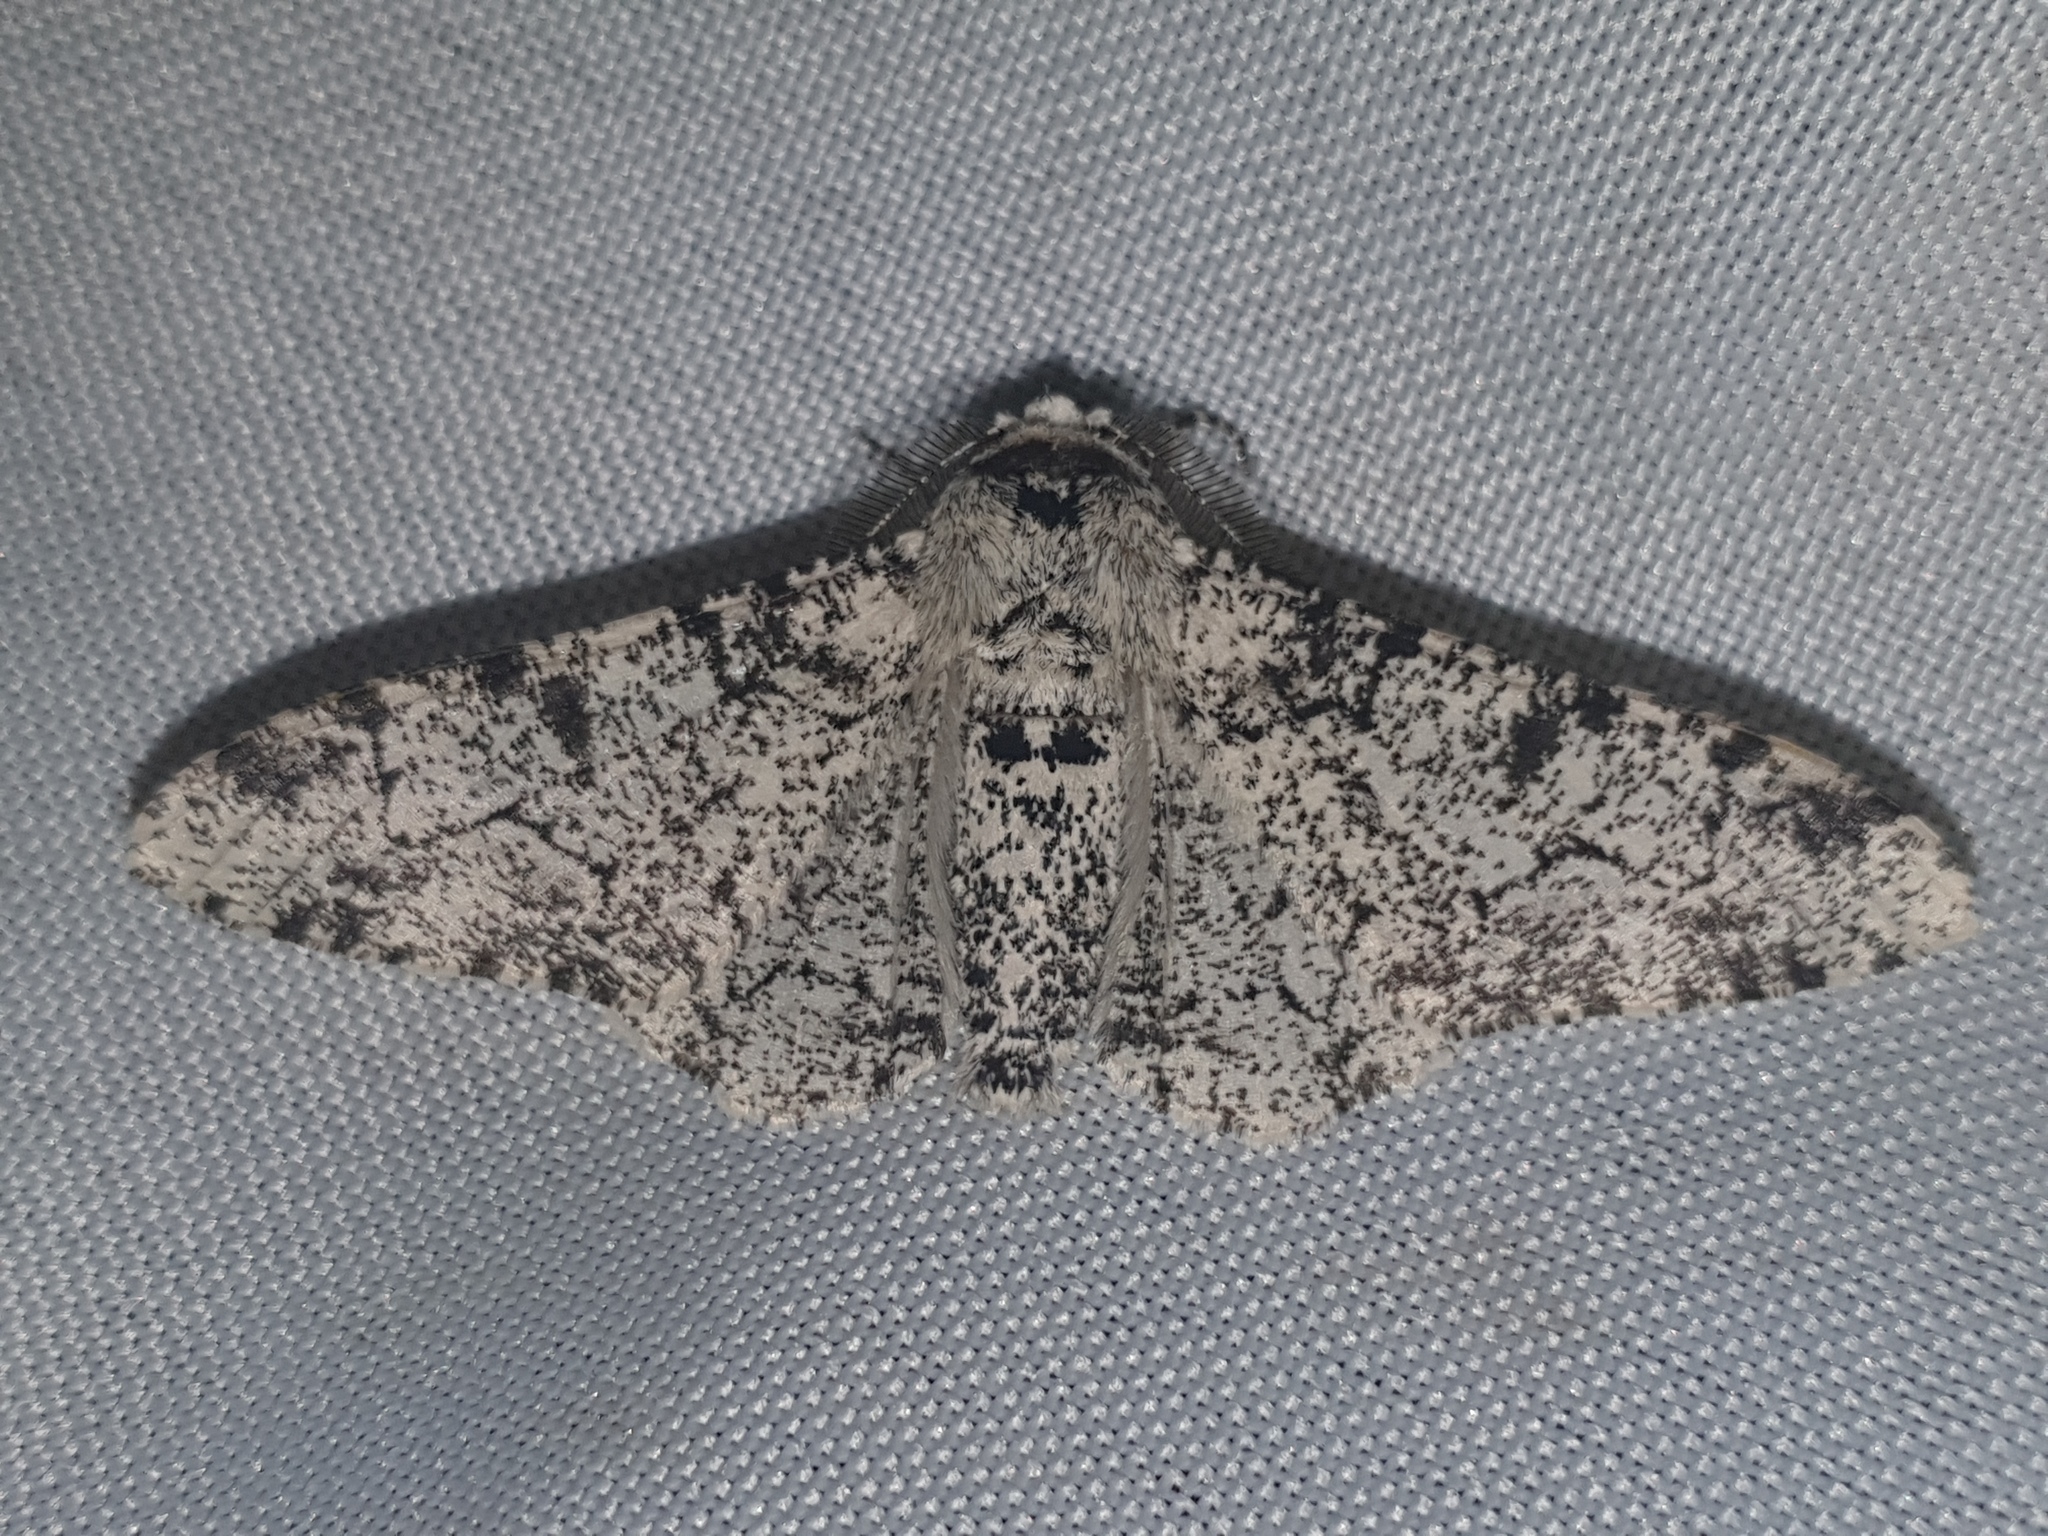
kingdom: Animalia
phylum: Arthropoda
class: Insecta
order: Lepidoptera
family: Geometridae
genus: Biston
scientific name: Biston betularia
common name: Peppered moth
